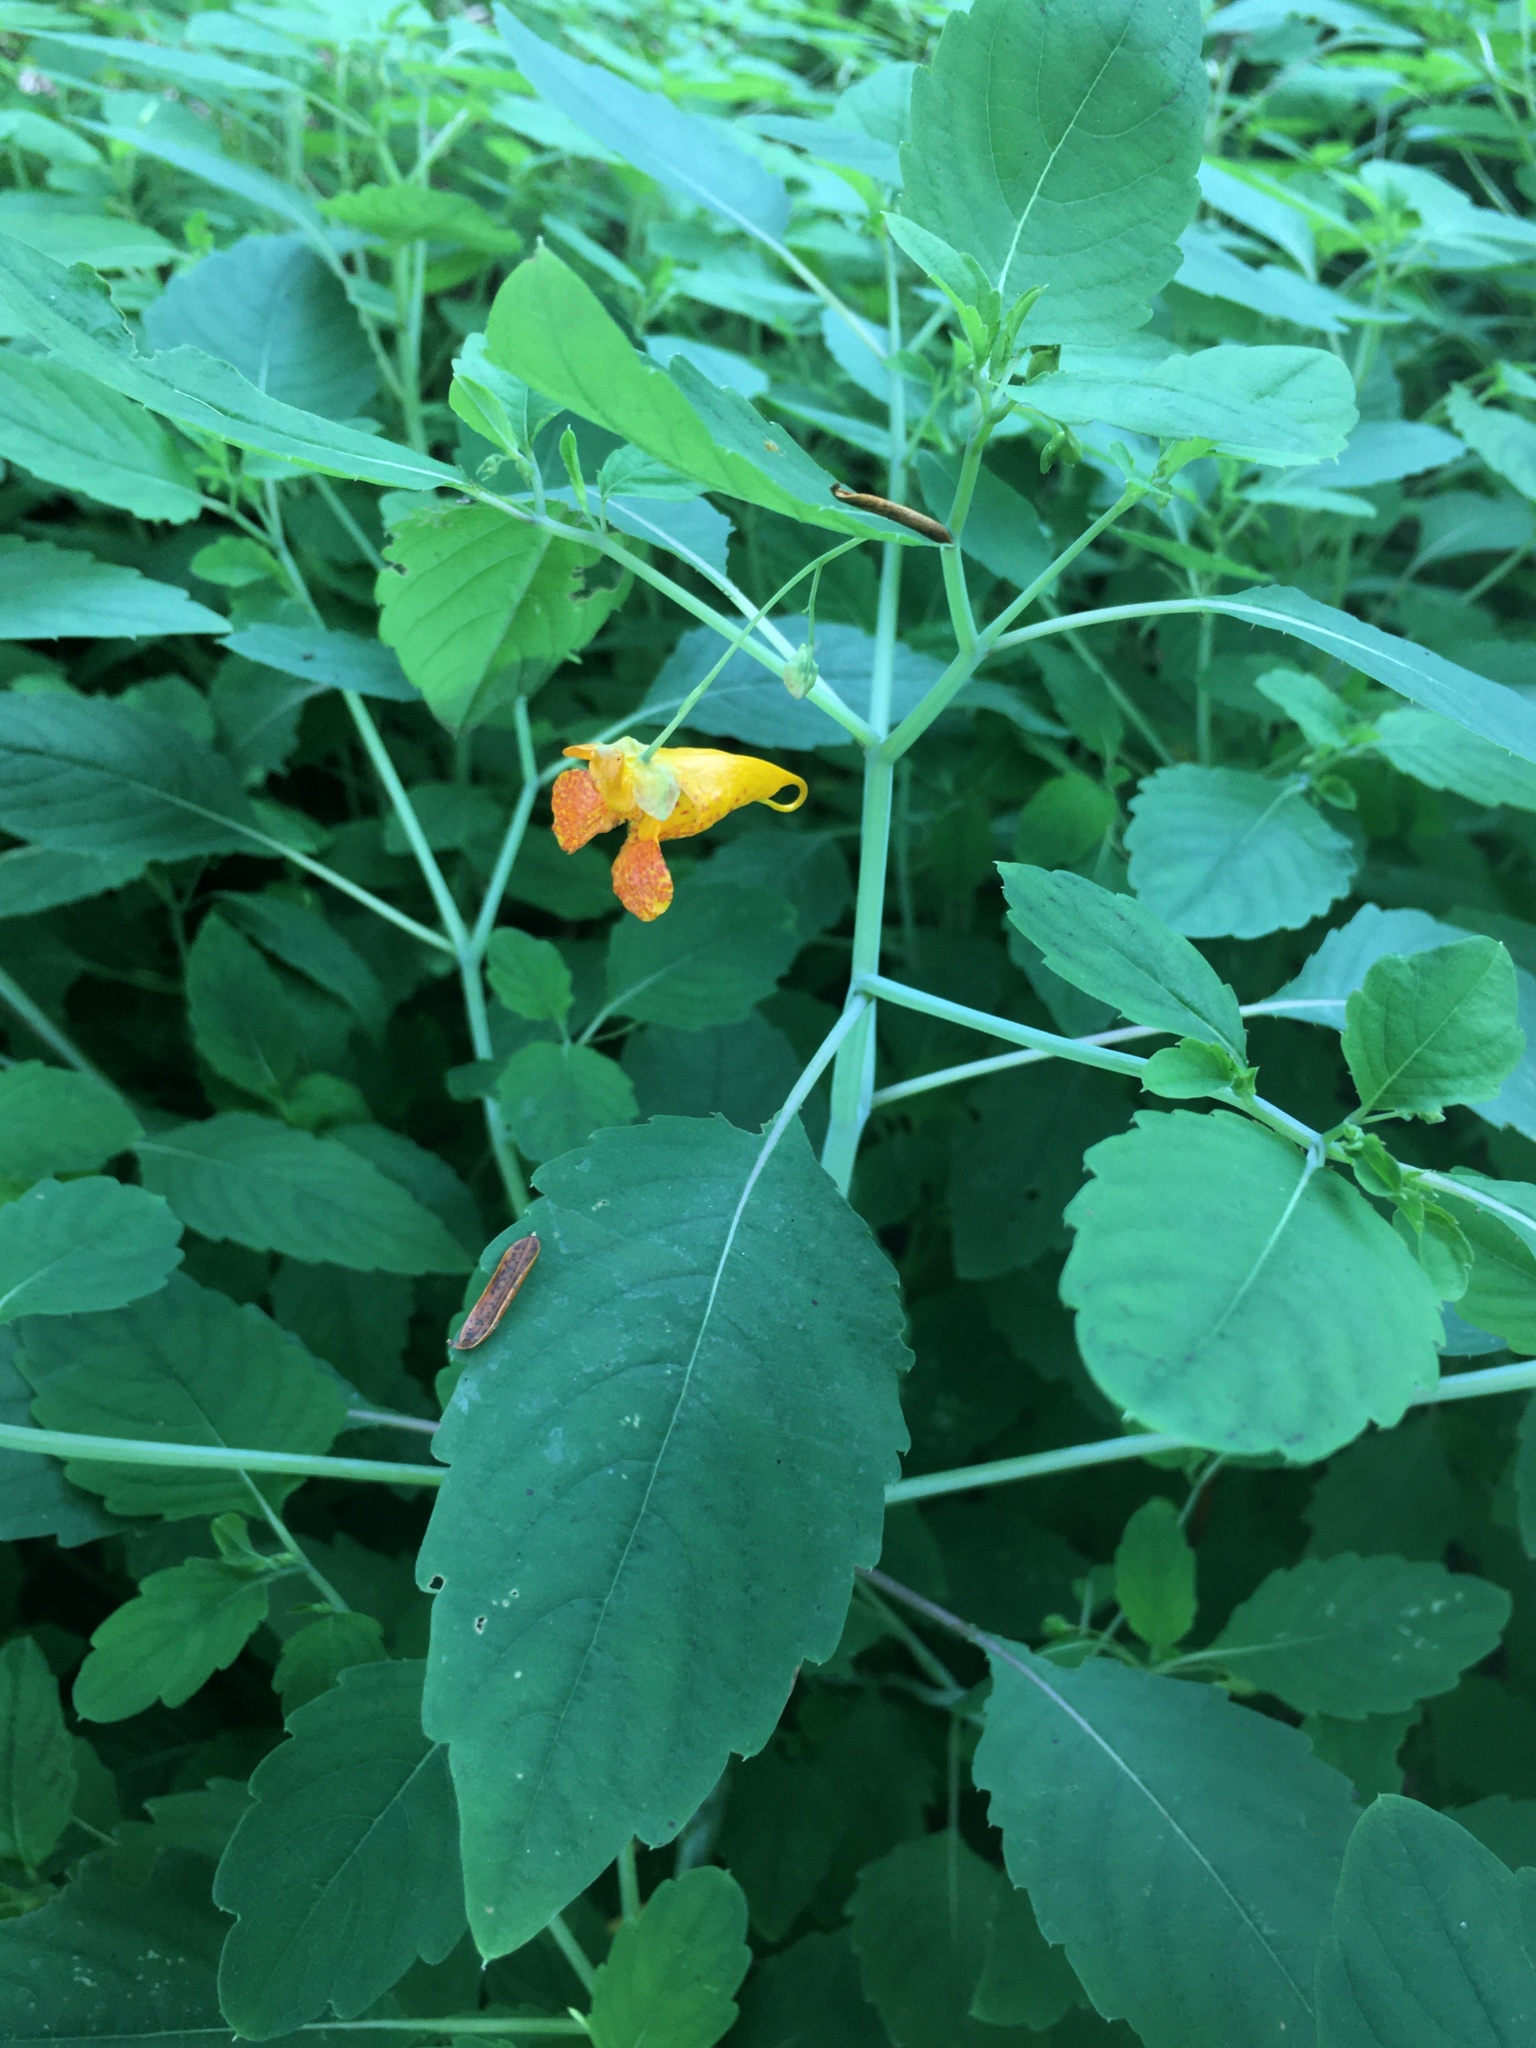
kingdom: Plantae
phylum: Tracheophyta
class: Magnoliopsida
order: Ericales
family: Balsaminaceae
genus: Impatiens
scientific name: Impatiens capensis
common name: Orange balsam
